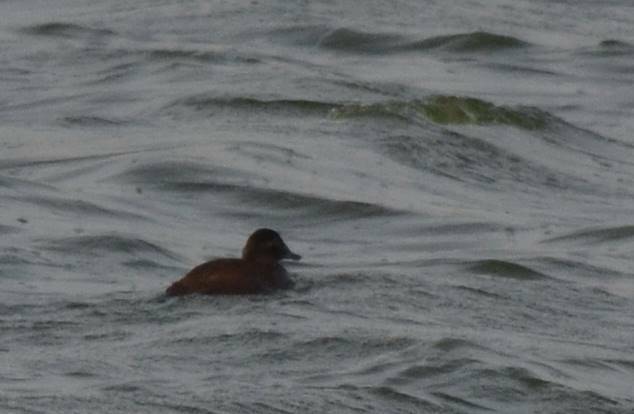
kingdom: Animalia
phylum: Chordata
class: Aves
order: Anseriformes
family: Anatidae
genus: Oxyura
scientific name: Oxyura leucocephala
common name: White-headed duck
